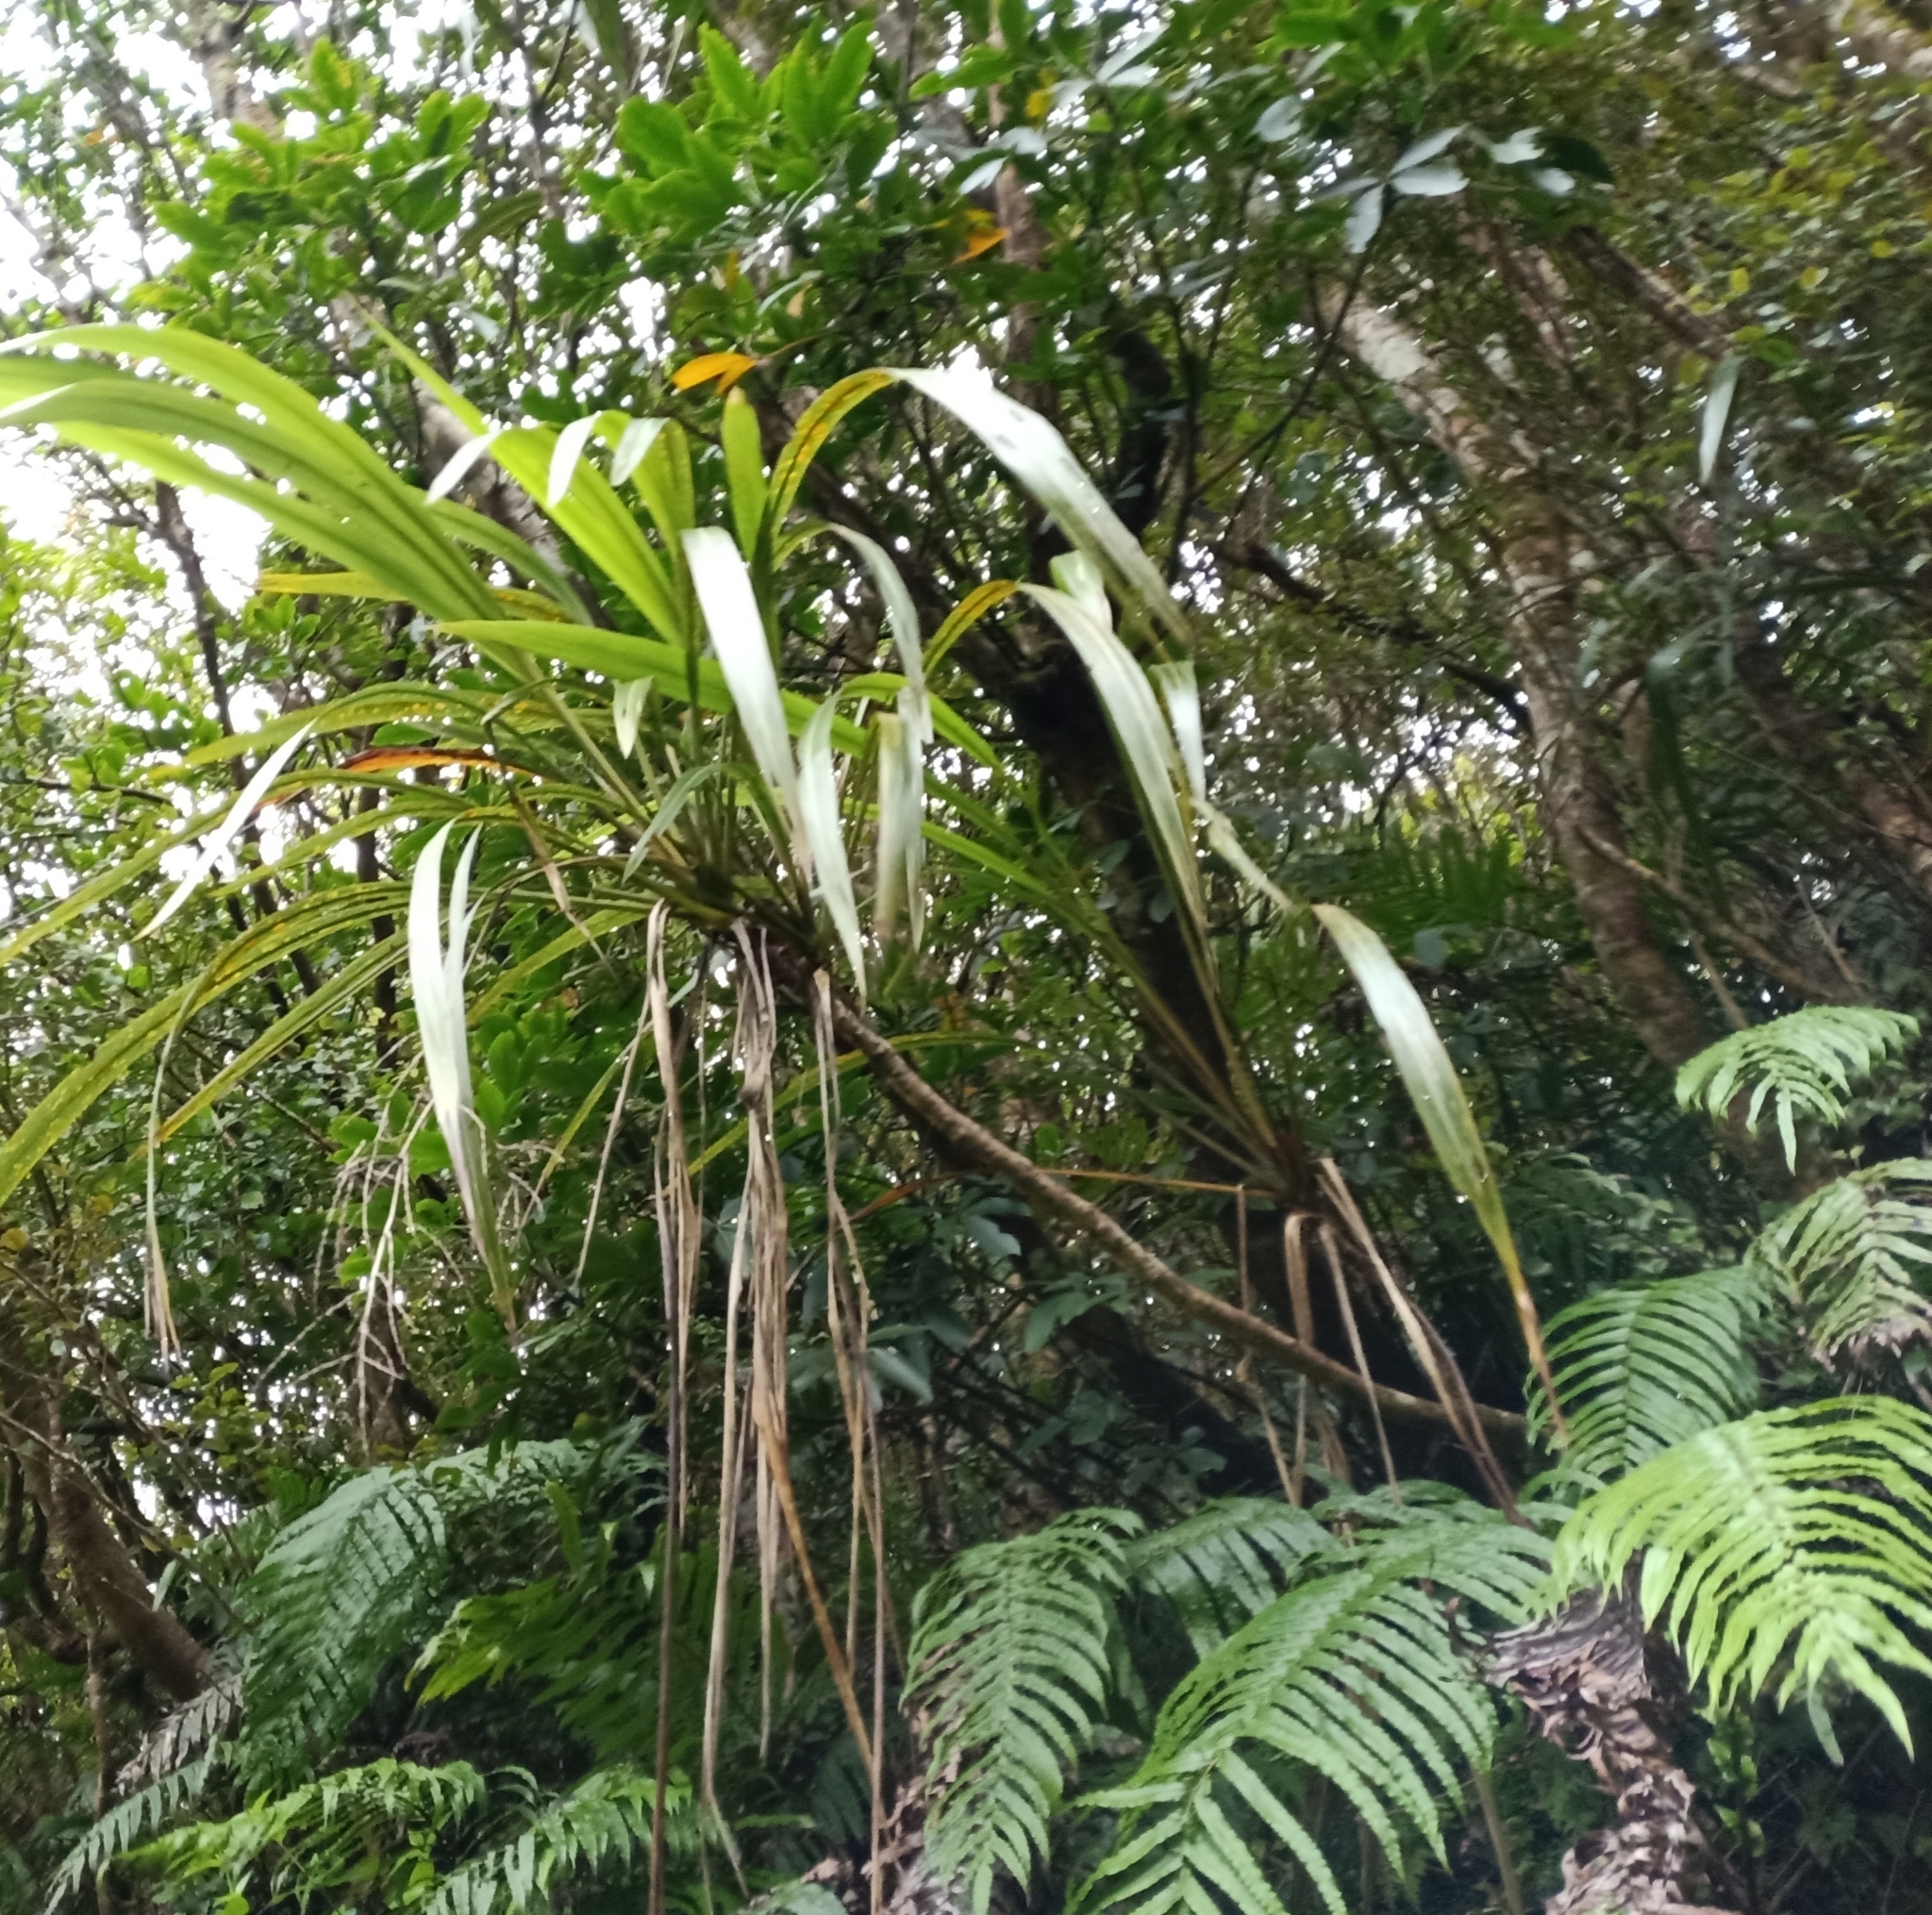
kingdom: Plantae
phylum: Tracheophyta
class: Liliopsida
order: Asparagales
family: Asparagaceae
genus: Cordyline
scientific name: Cordyline banksii
